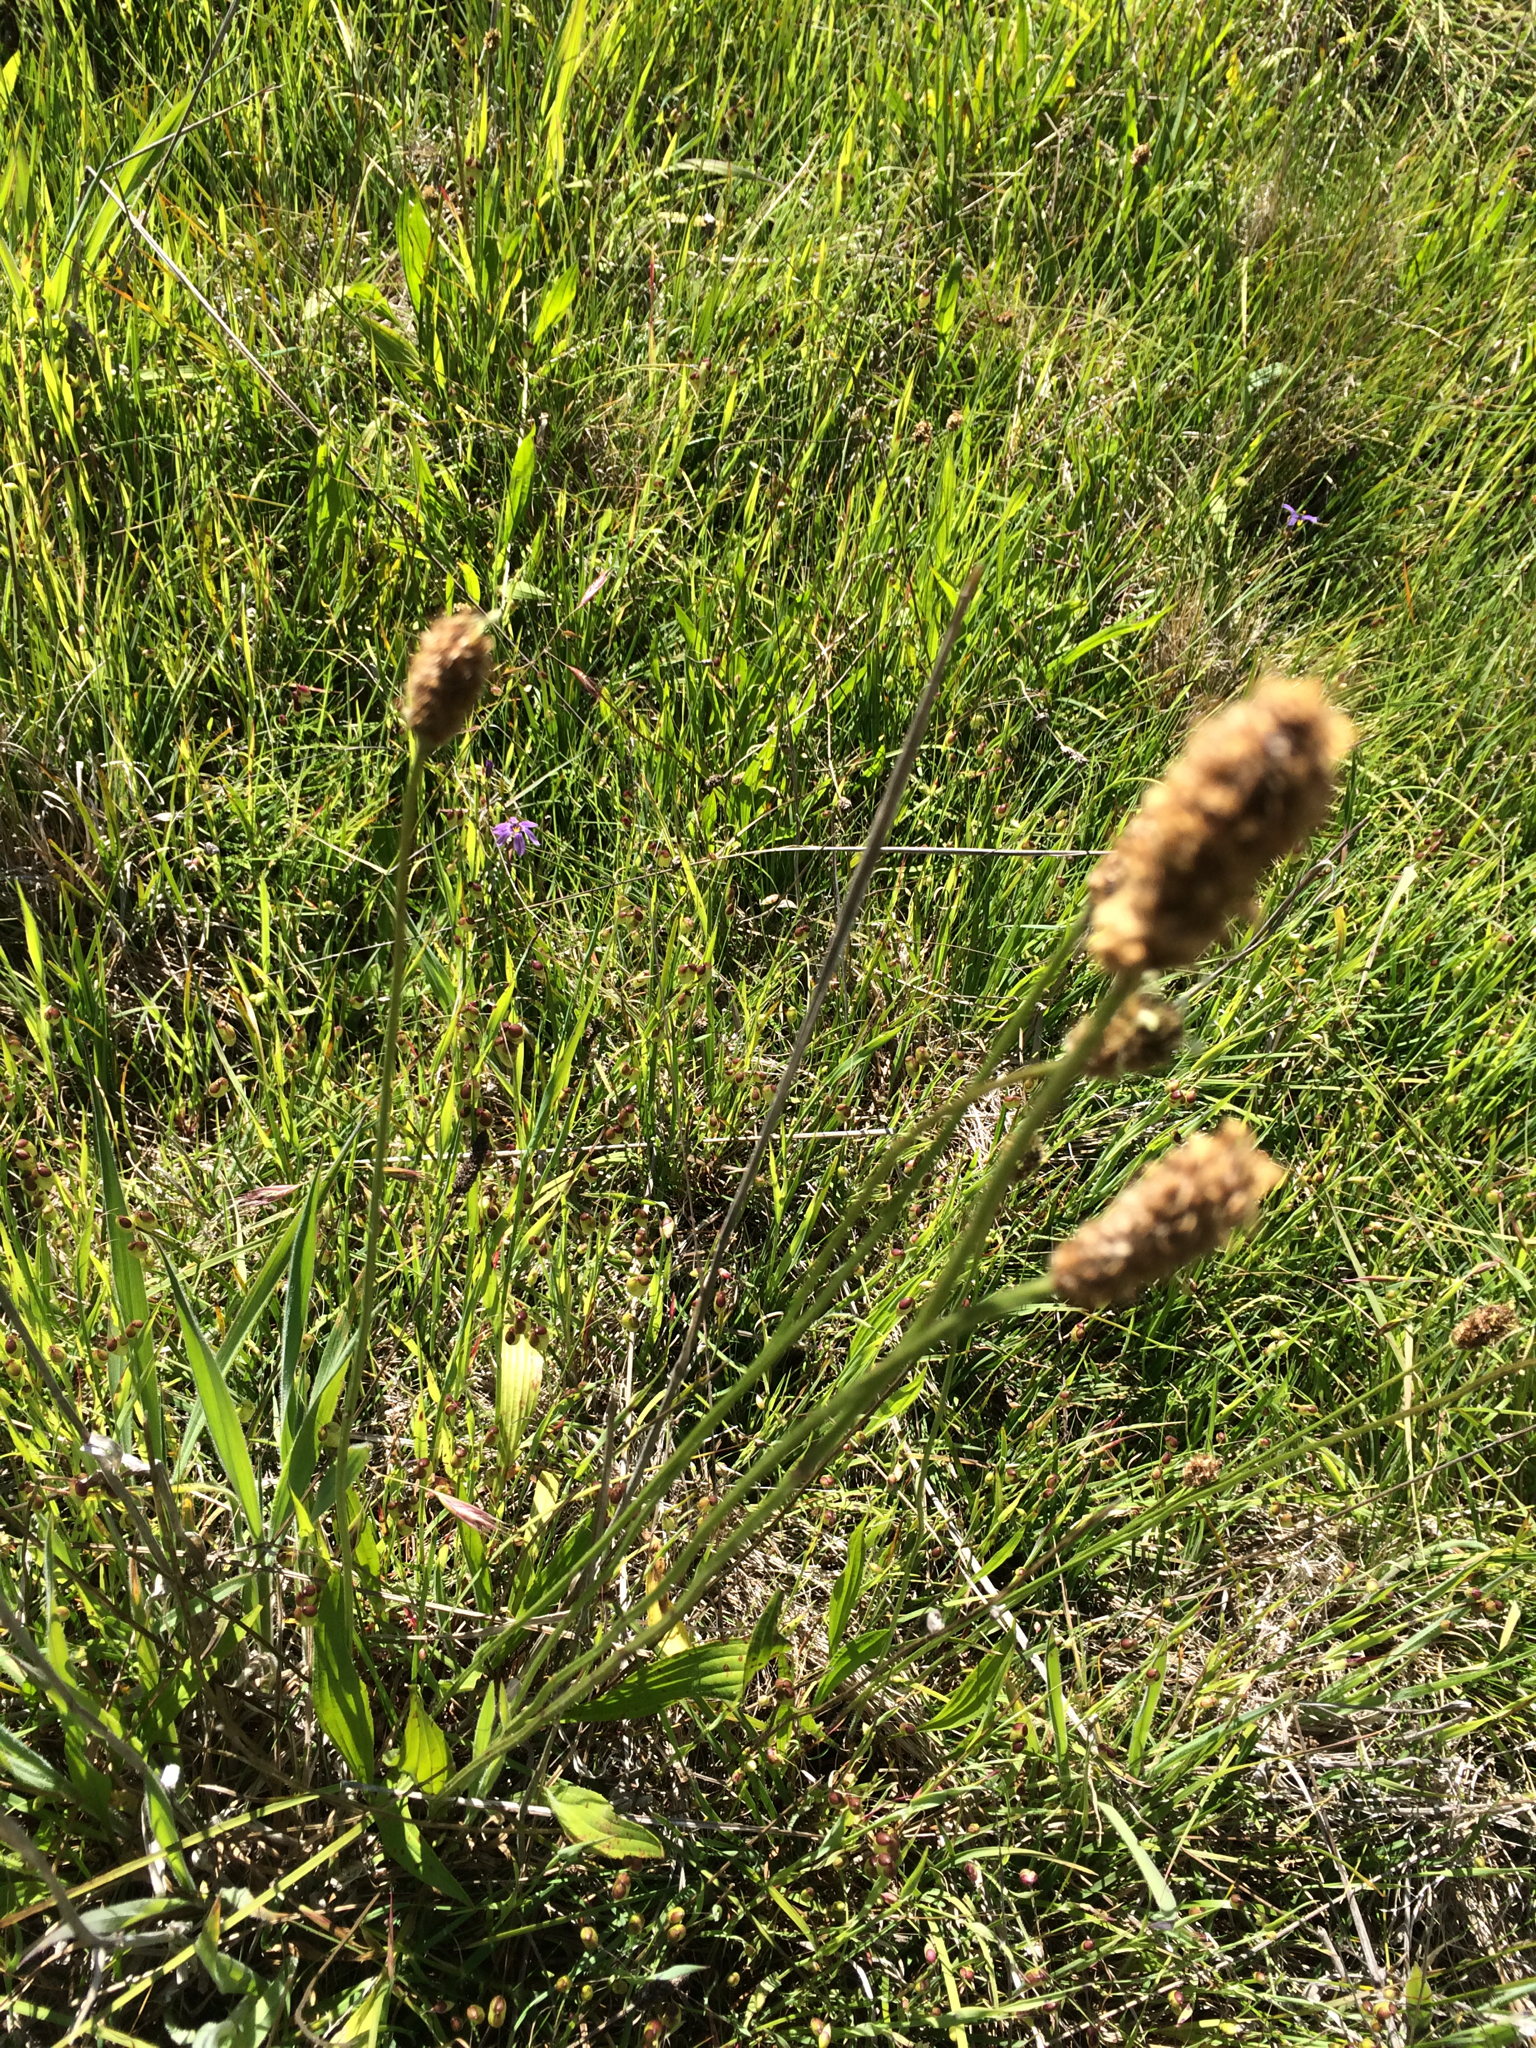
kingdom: Plantae
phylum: Tracheophyta
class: Magnoliopsida
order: Lamiales
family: Plantaginaceae
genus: Plantago
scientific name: Plantago lanceolata
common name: Ribwort plantain
